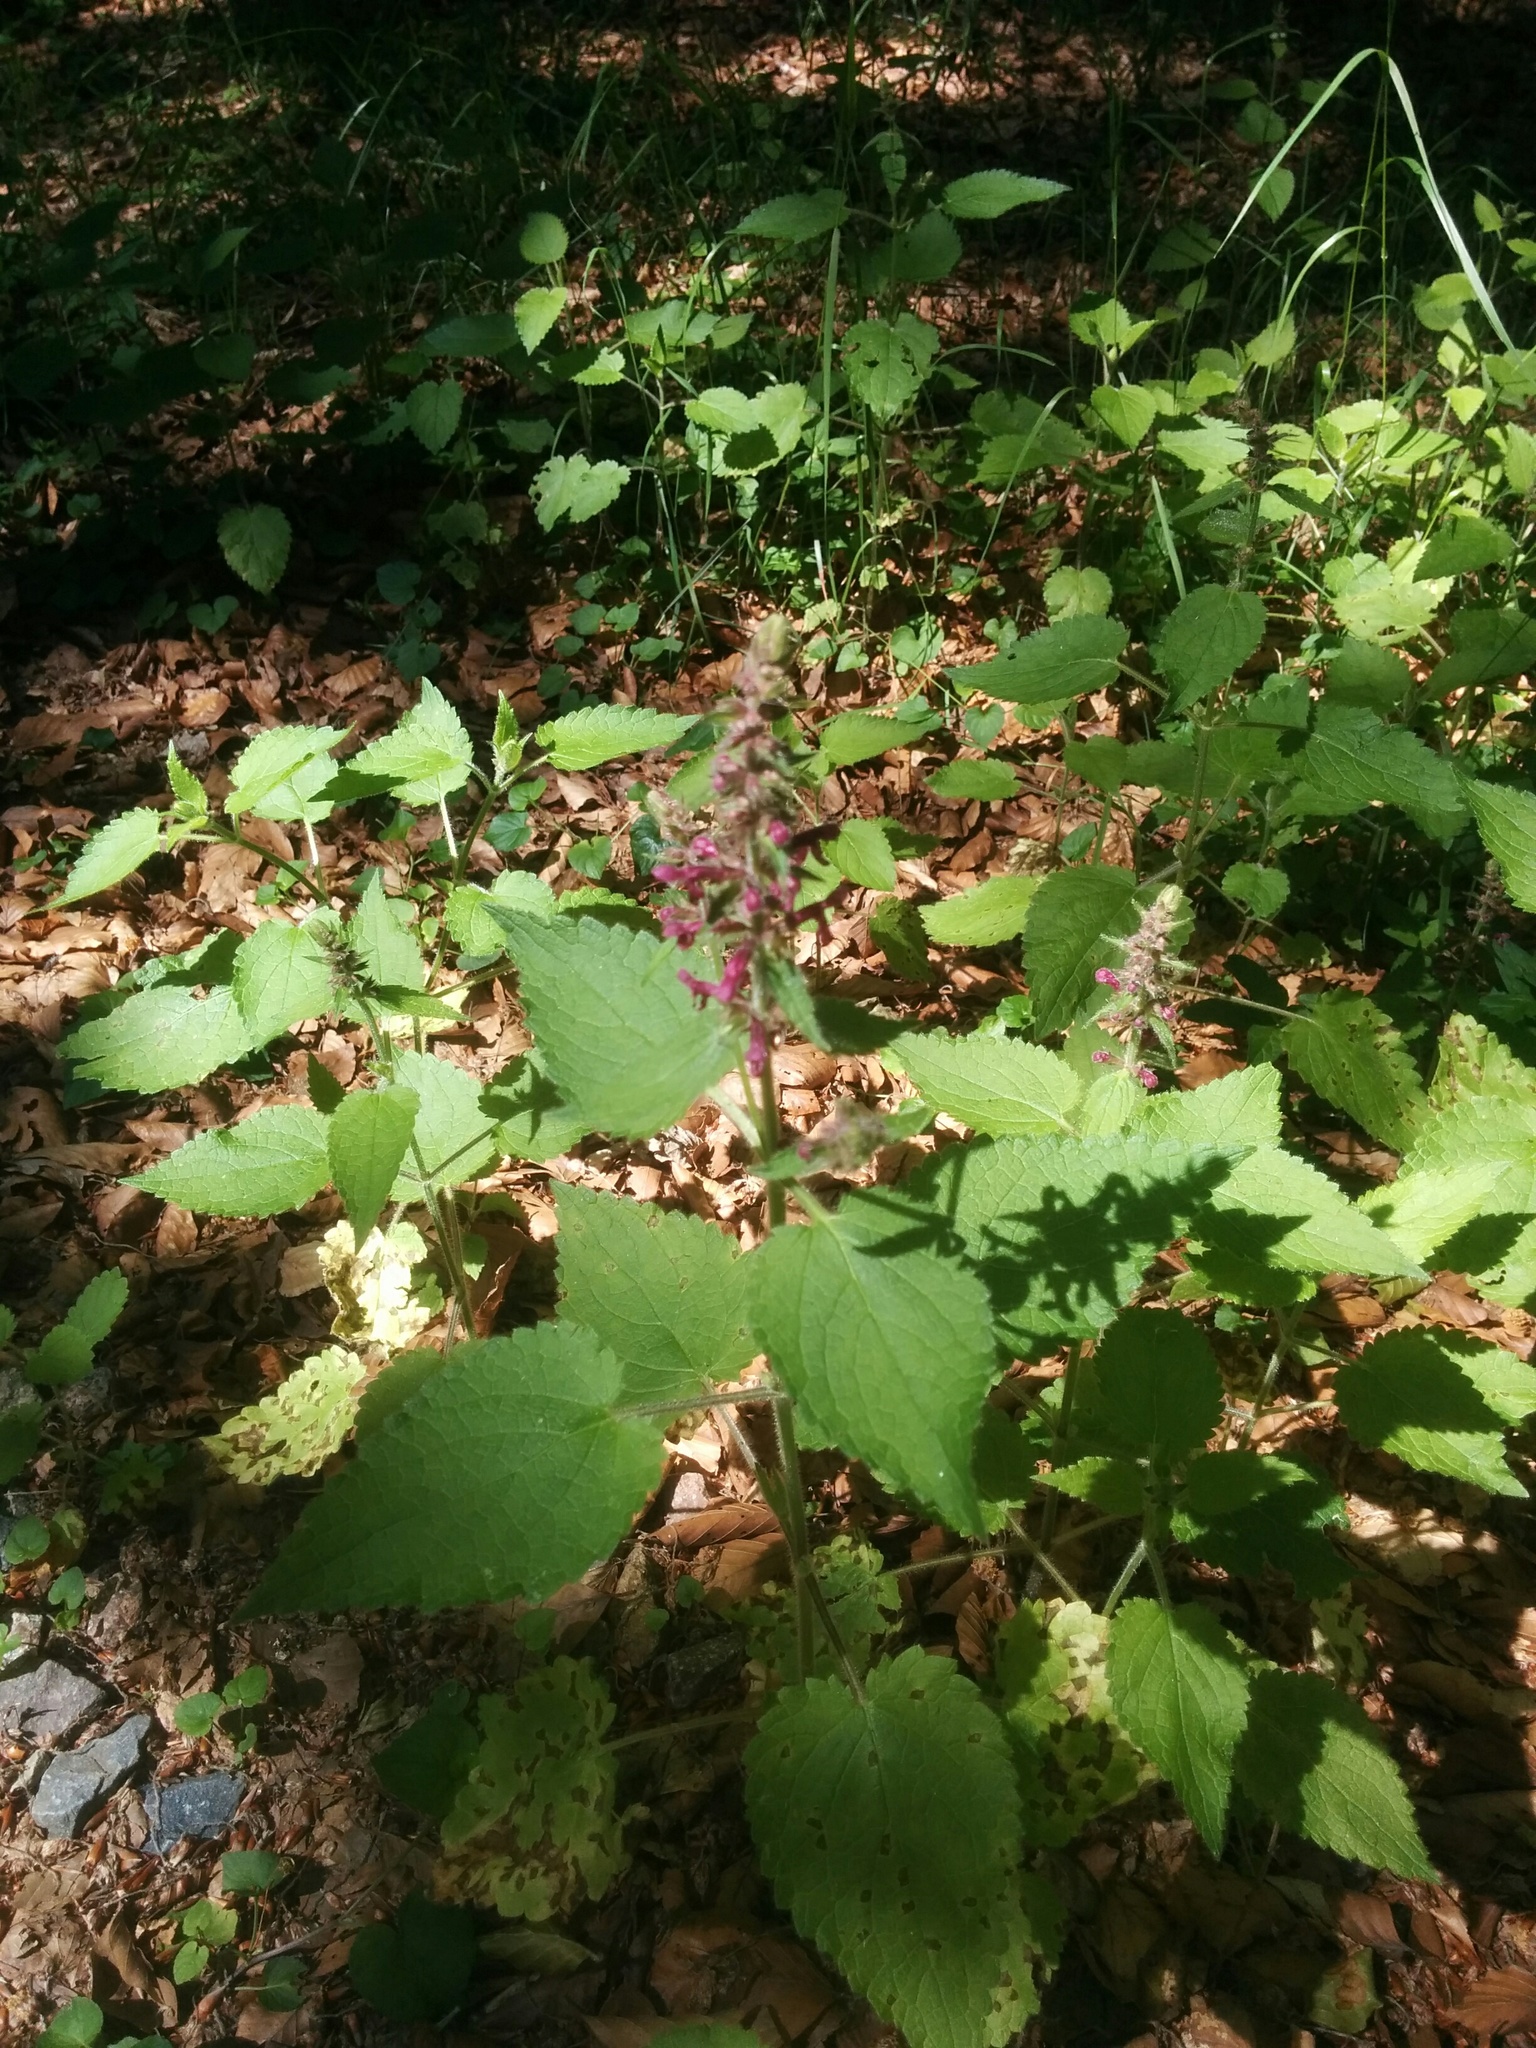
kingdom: Plantae
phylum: Tracheophyta
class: Magnoliopsida
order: Lamiales
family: Lamiaceae
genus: Stachys
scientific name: Stachys sylvatica
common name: Hedge woundwort
